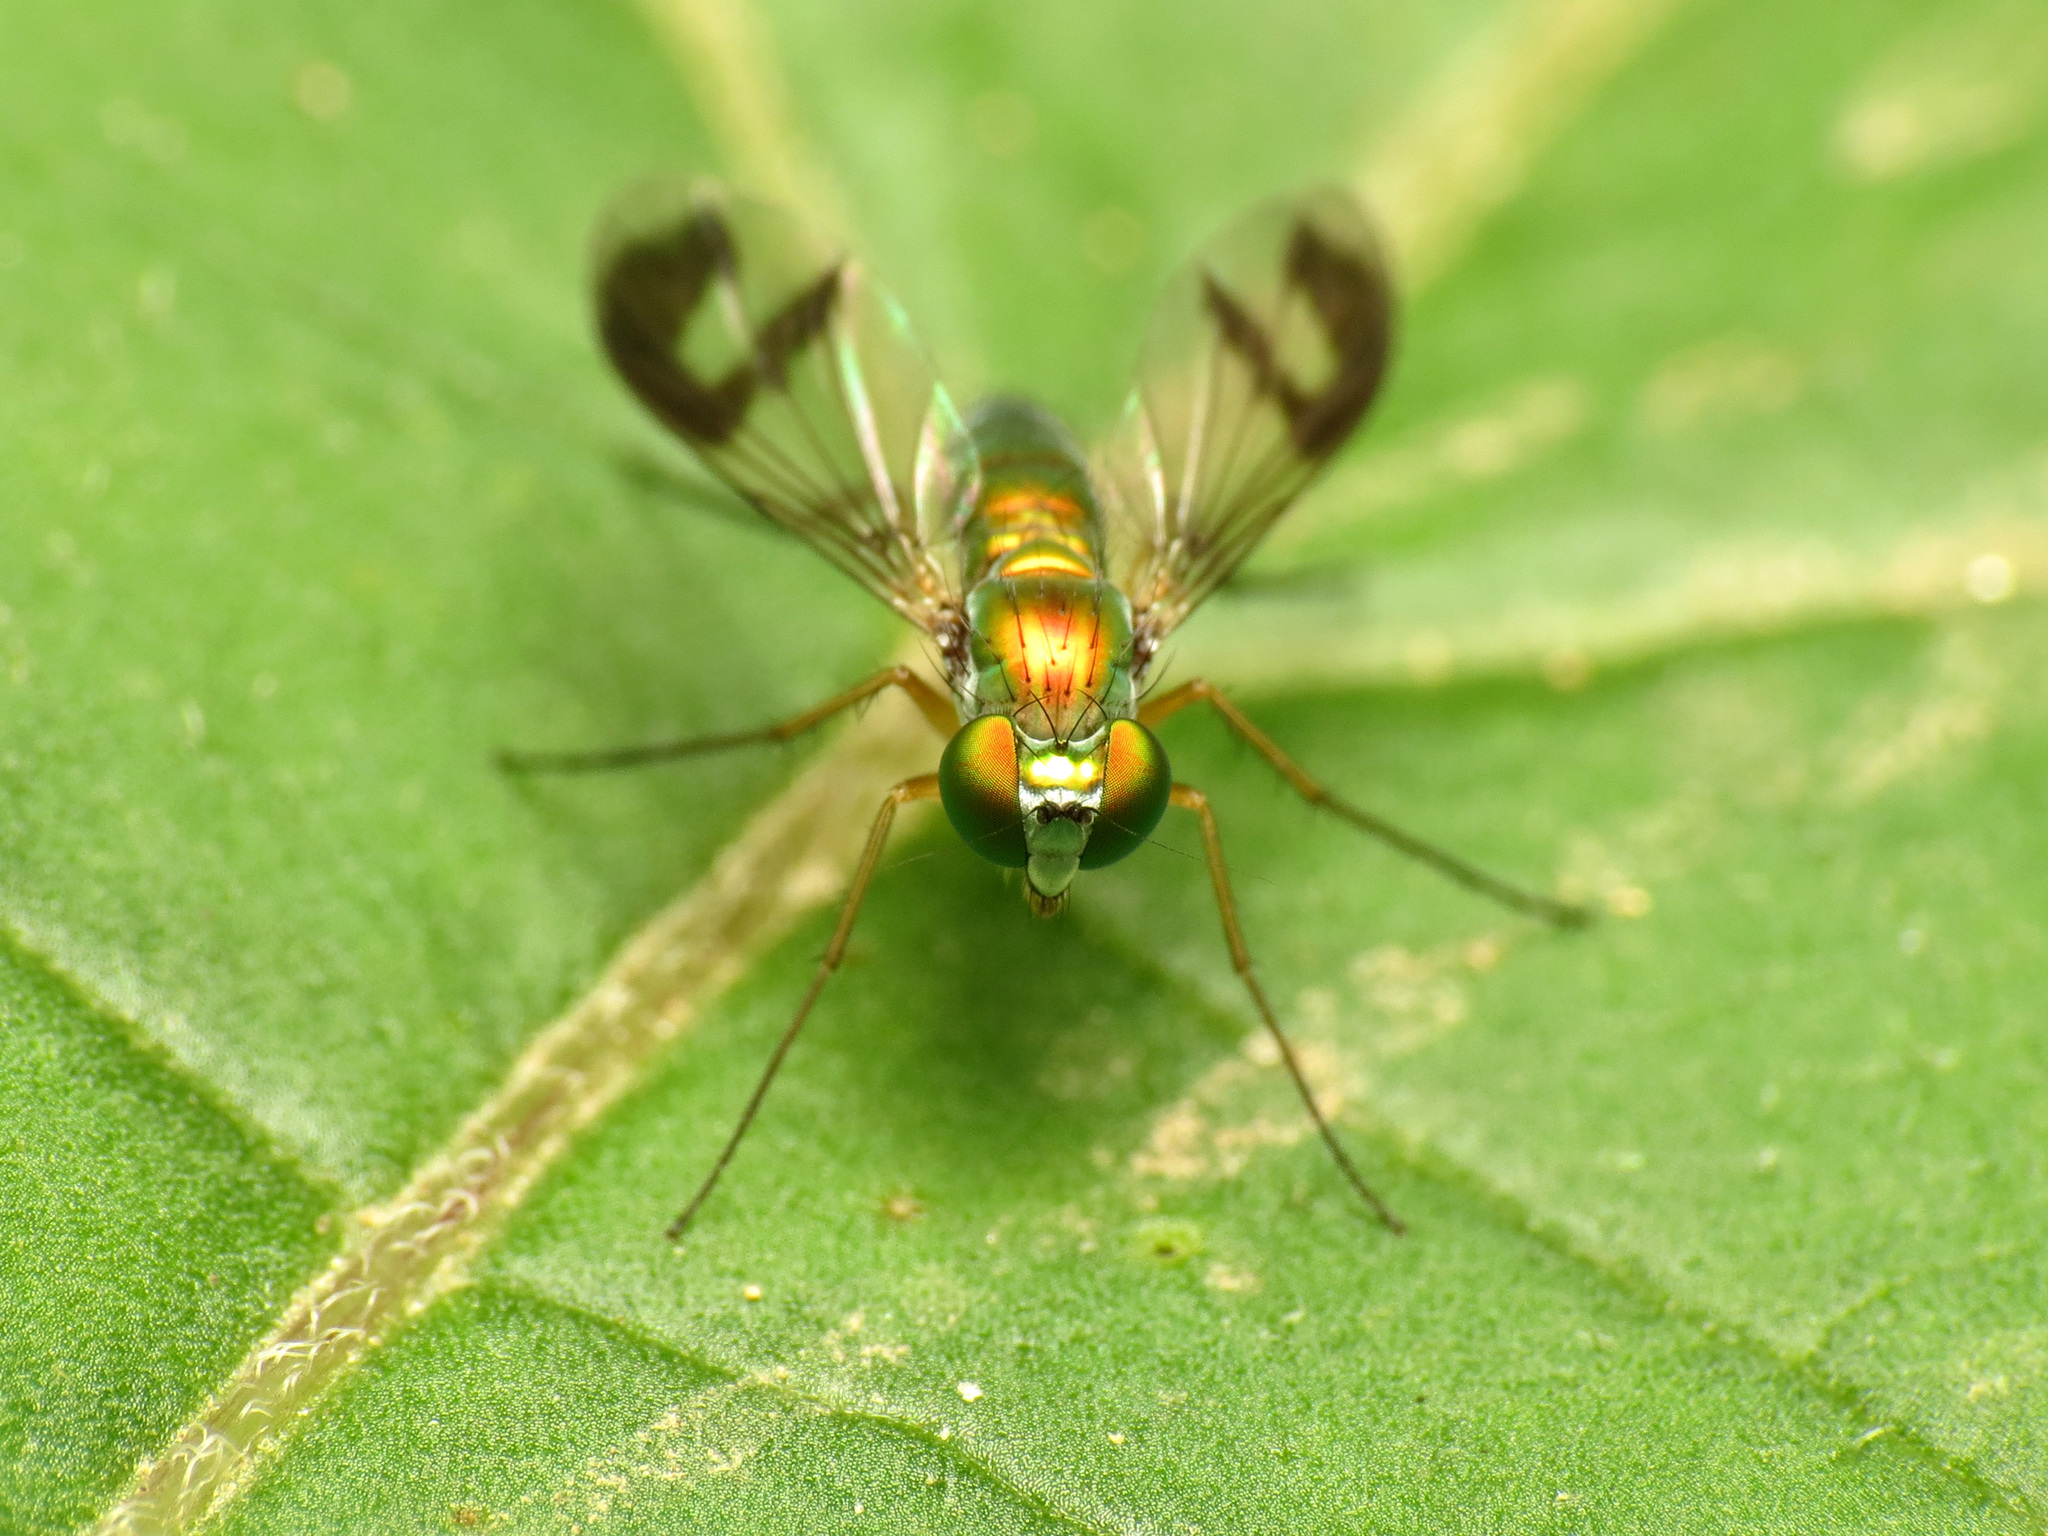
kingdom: Animalia
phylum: Arthropoda
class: Insecta
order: Diptera
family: Dolichopodidae
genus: Condylostylus
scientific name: Condylostylus
